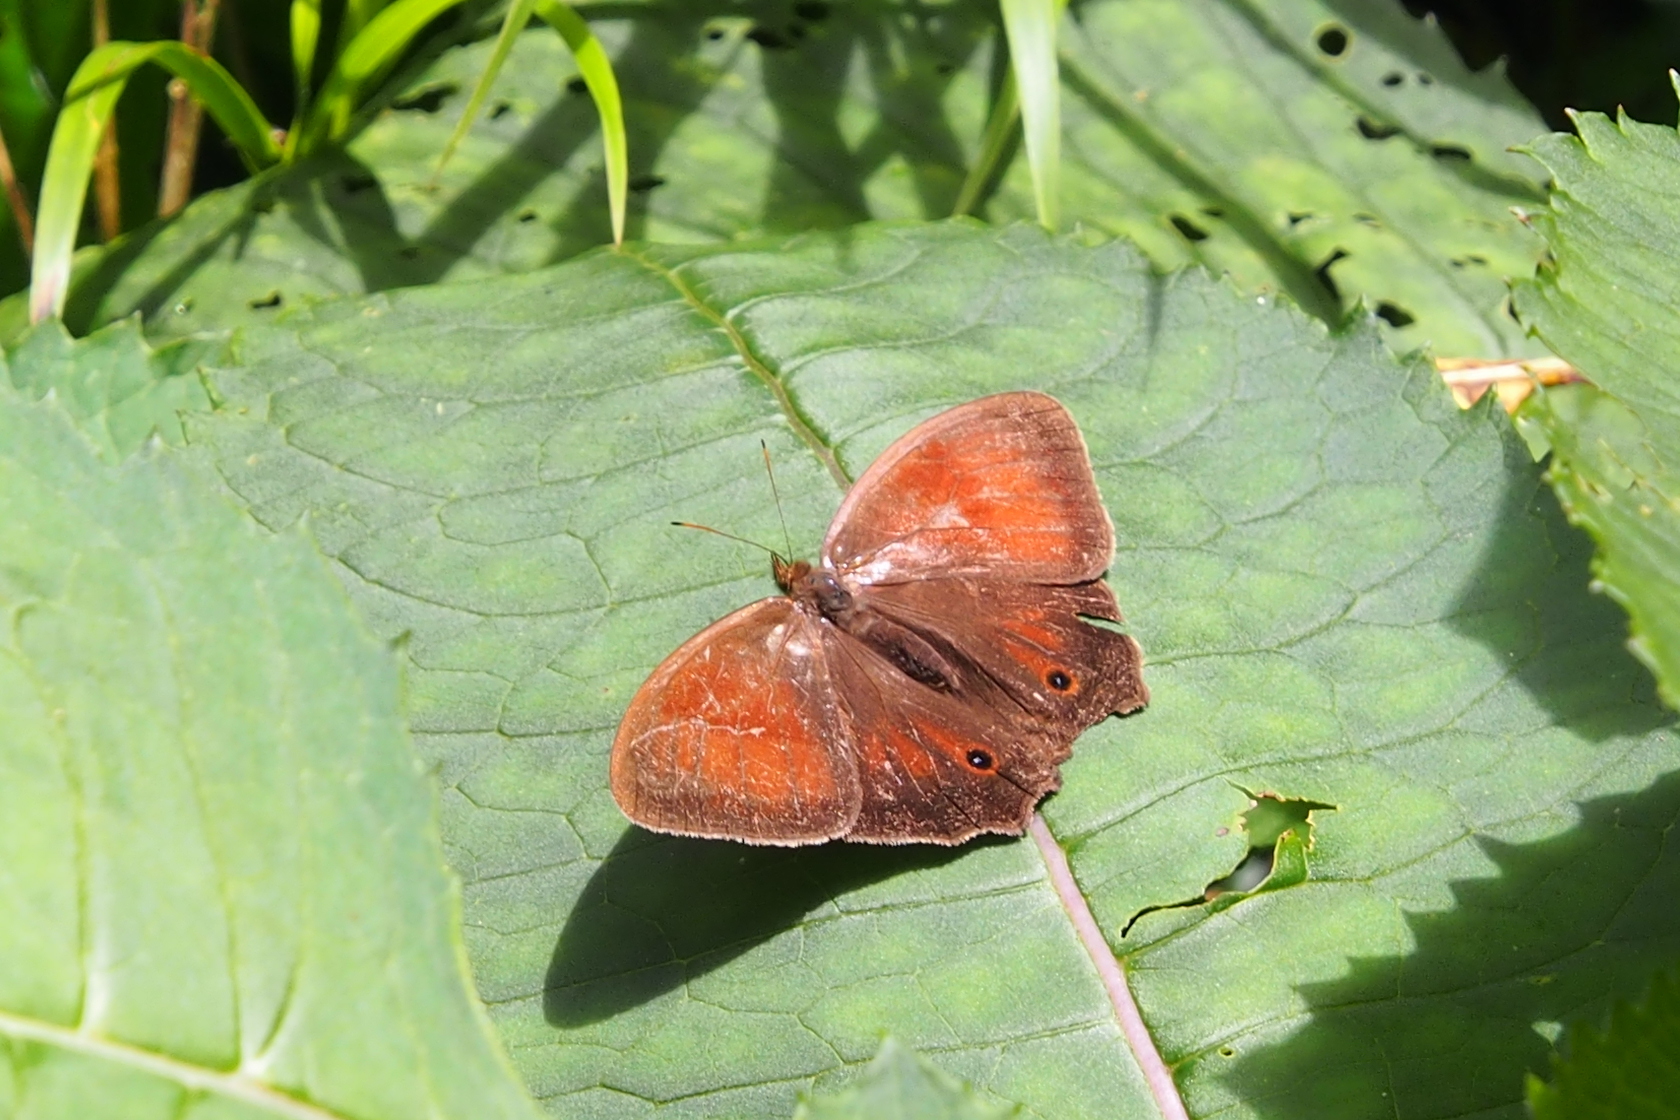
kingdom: Animalia
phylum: Arthropoda
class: Insecta
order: Lepidoptera
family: Nymphalidae
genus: Satyrotaygetis
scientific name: Satyrotaygetis satyrina
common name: Wide-bordered satyr
